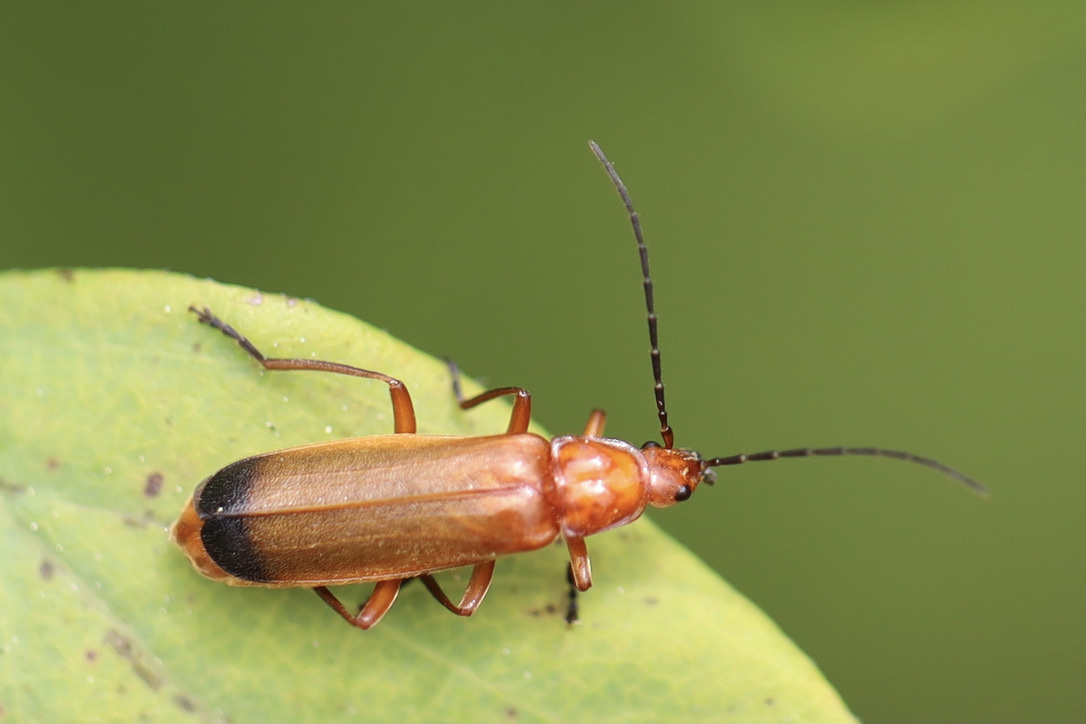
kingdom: Animalia
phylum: Arthropoda
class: Insecta
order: Coleoptera
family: Cantharidae
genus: Rhagonycha
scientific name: Rhagonycha fulva
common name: Common red soldier beetle
